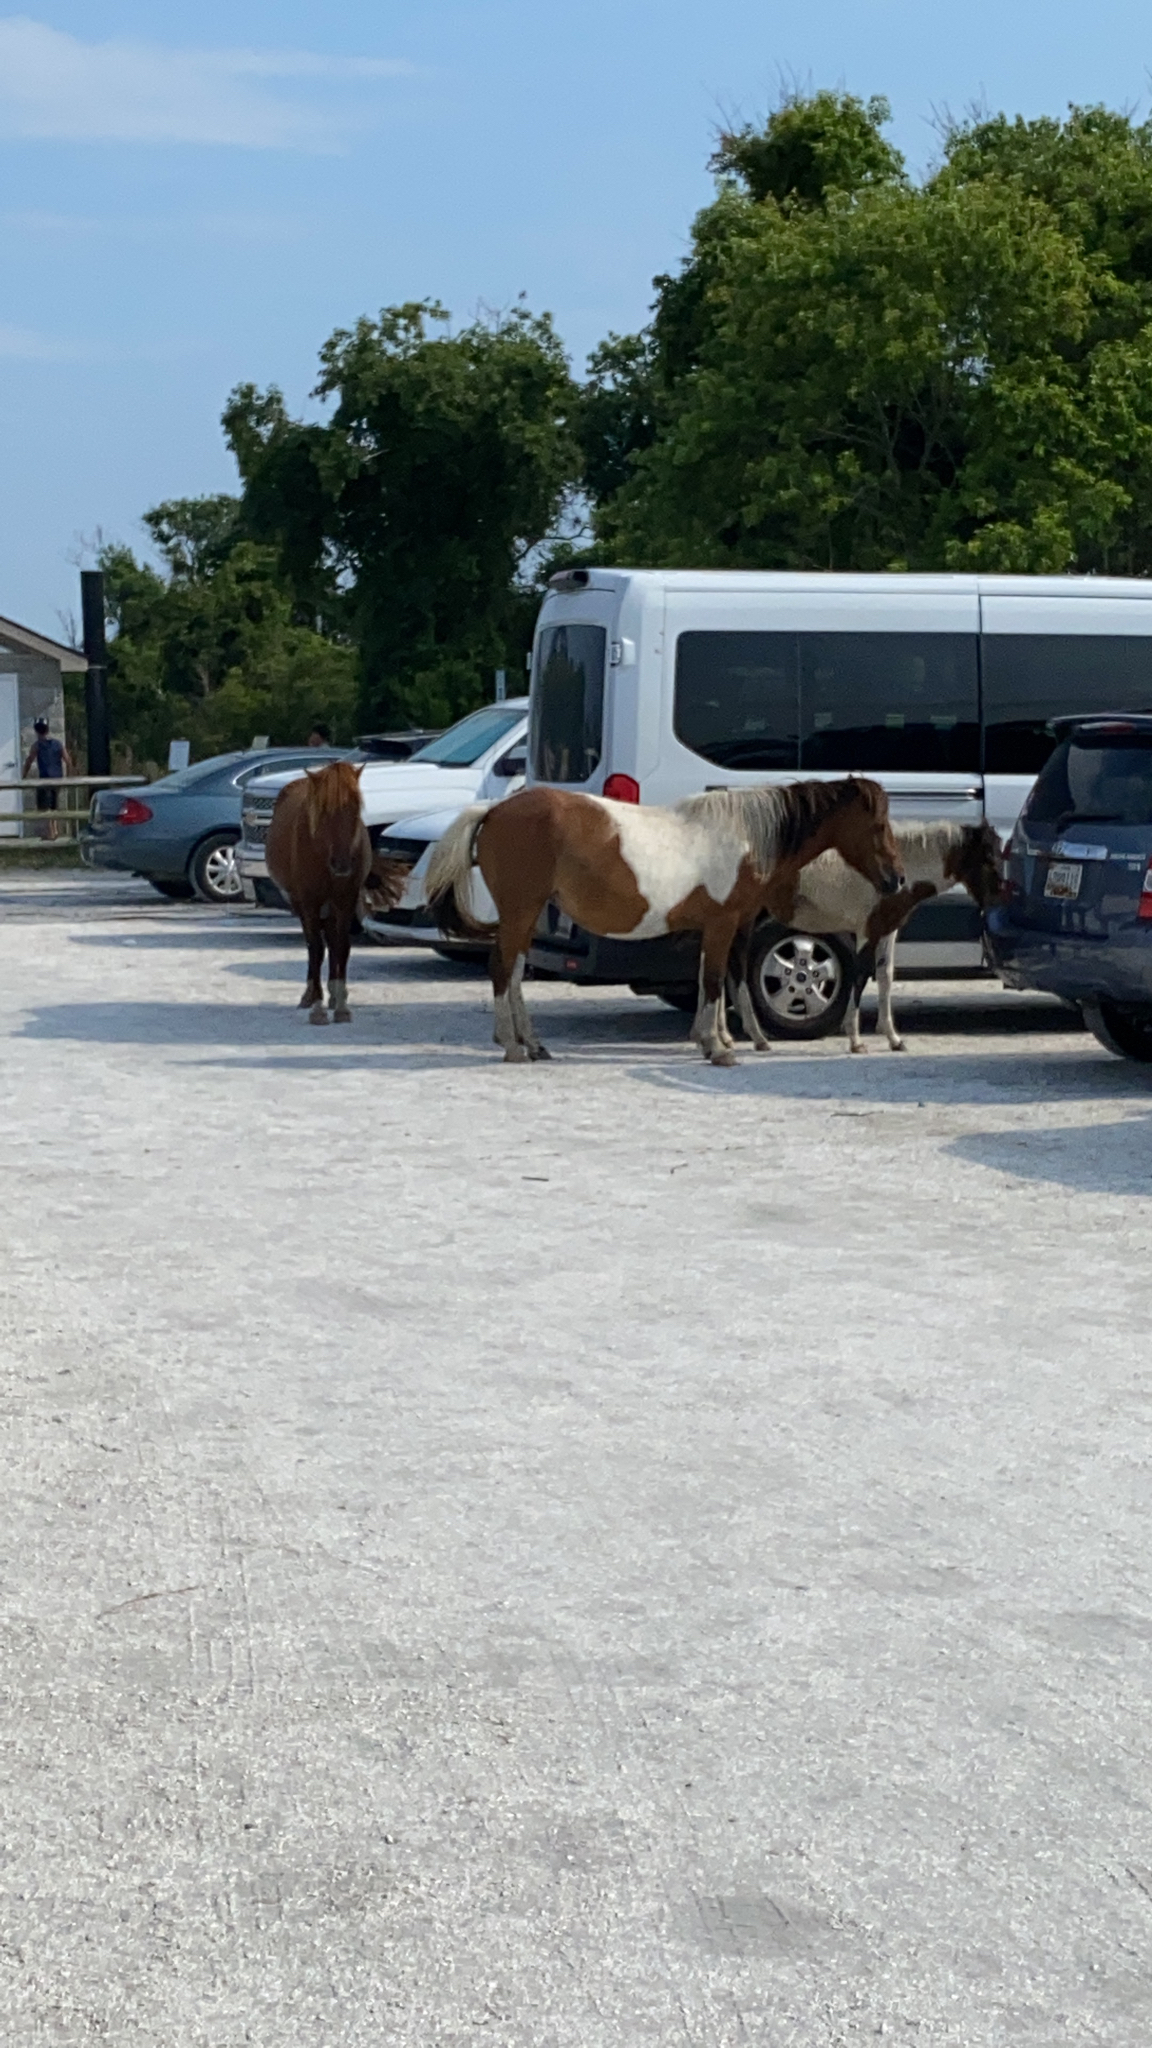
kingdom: Animalia
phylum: Chordata
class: Mammalia
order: Perissodactyla
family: Equidae
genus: Equus
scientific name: Equus caballus
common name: Horse
